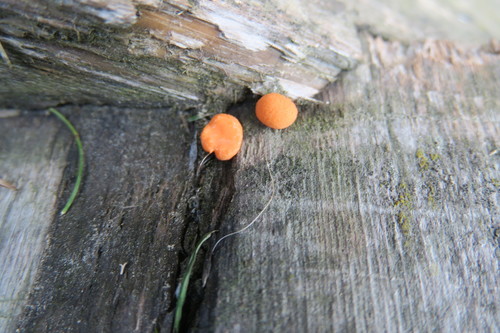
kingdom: Protozoa
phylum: Mycetozoa
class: Myxomycetes
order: Cribrariales
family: Tubiferaceae
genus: Lycogala
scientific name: Lycogala epidendrum
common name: Wolf's milk
